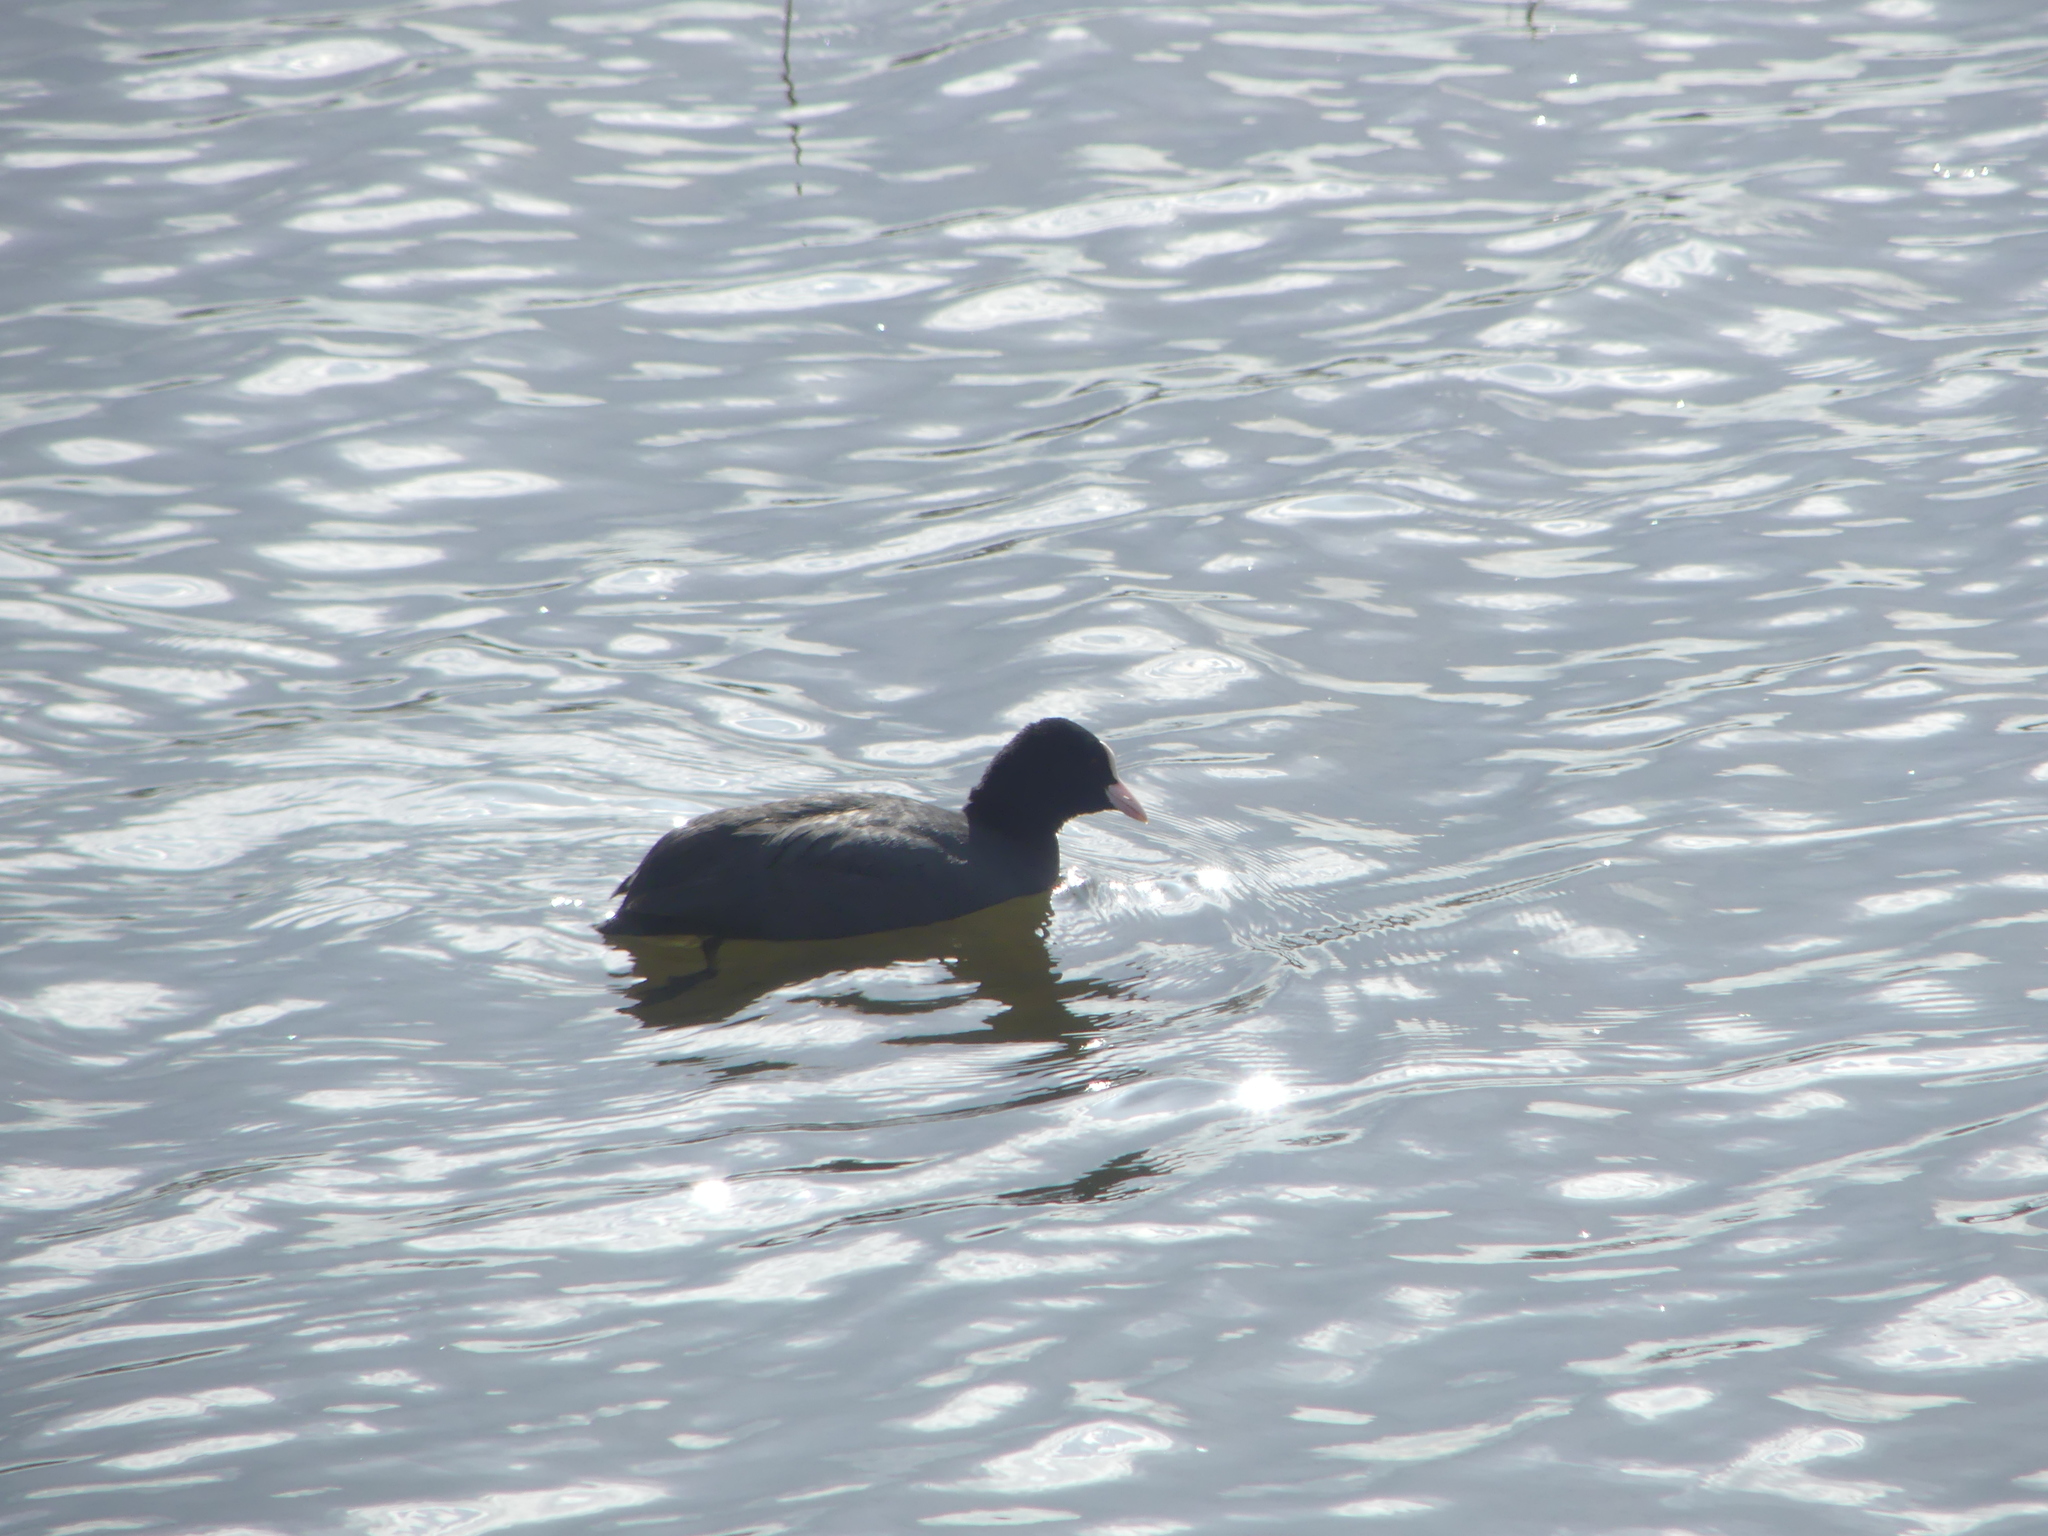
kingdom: Animalia
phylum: Chordata
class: Aves
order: Gruiformes
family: Rallidae
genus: Fulica
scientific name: Fulica atra
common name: Eurasian coot
